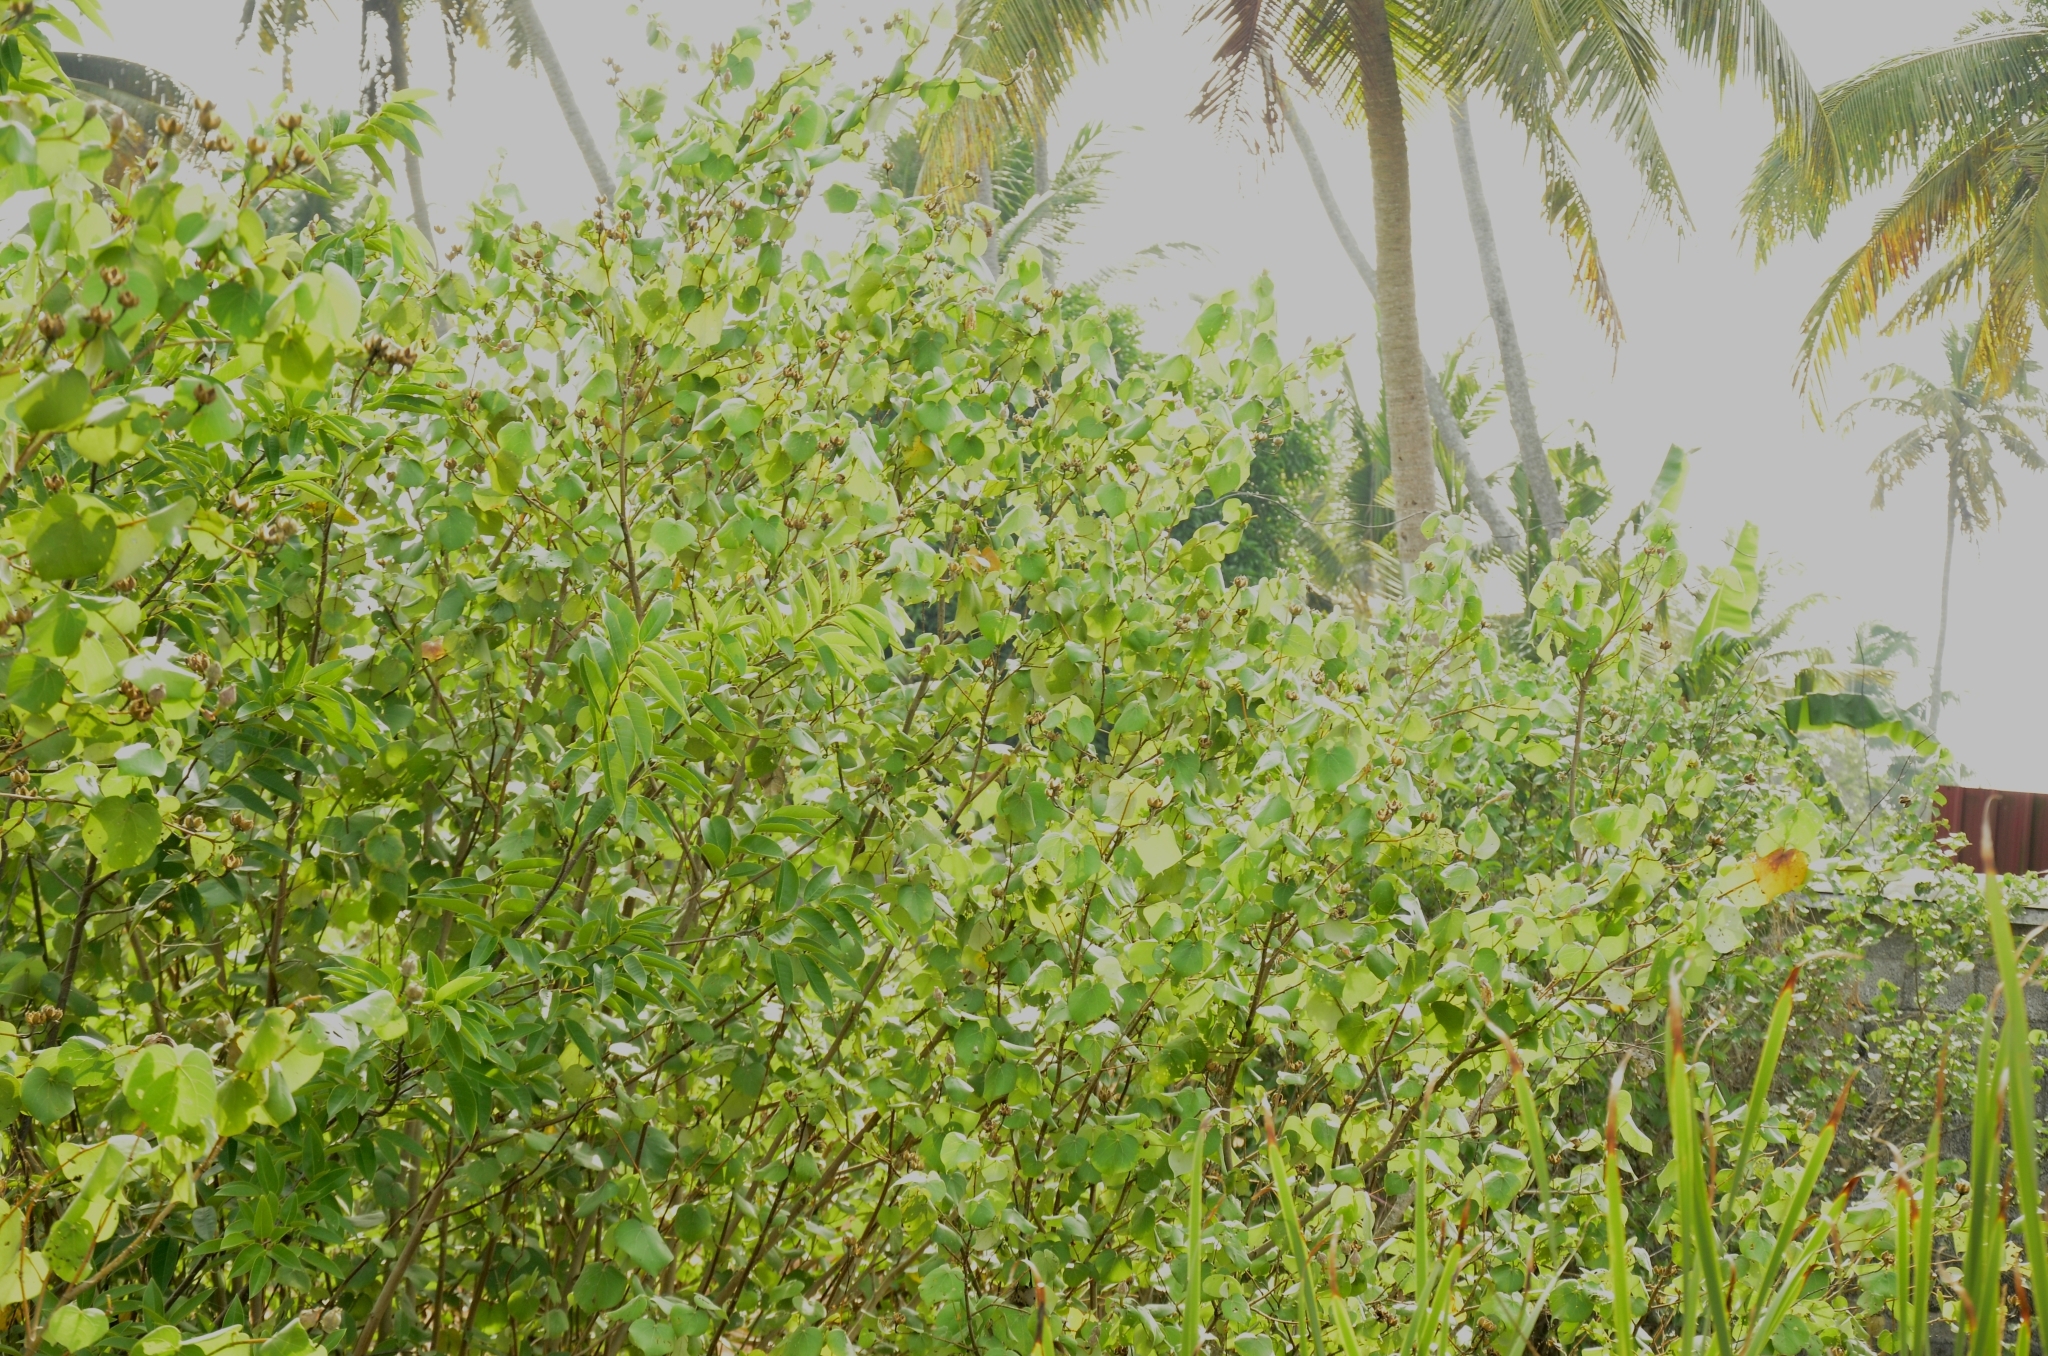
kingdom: Plantae
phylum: Tracheophyta
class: Magnoliopsida
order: Malvales
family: Malvaceae
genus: Talipariti
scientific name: Talipariti tiliaceum
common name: Sea hibiscus
